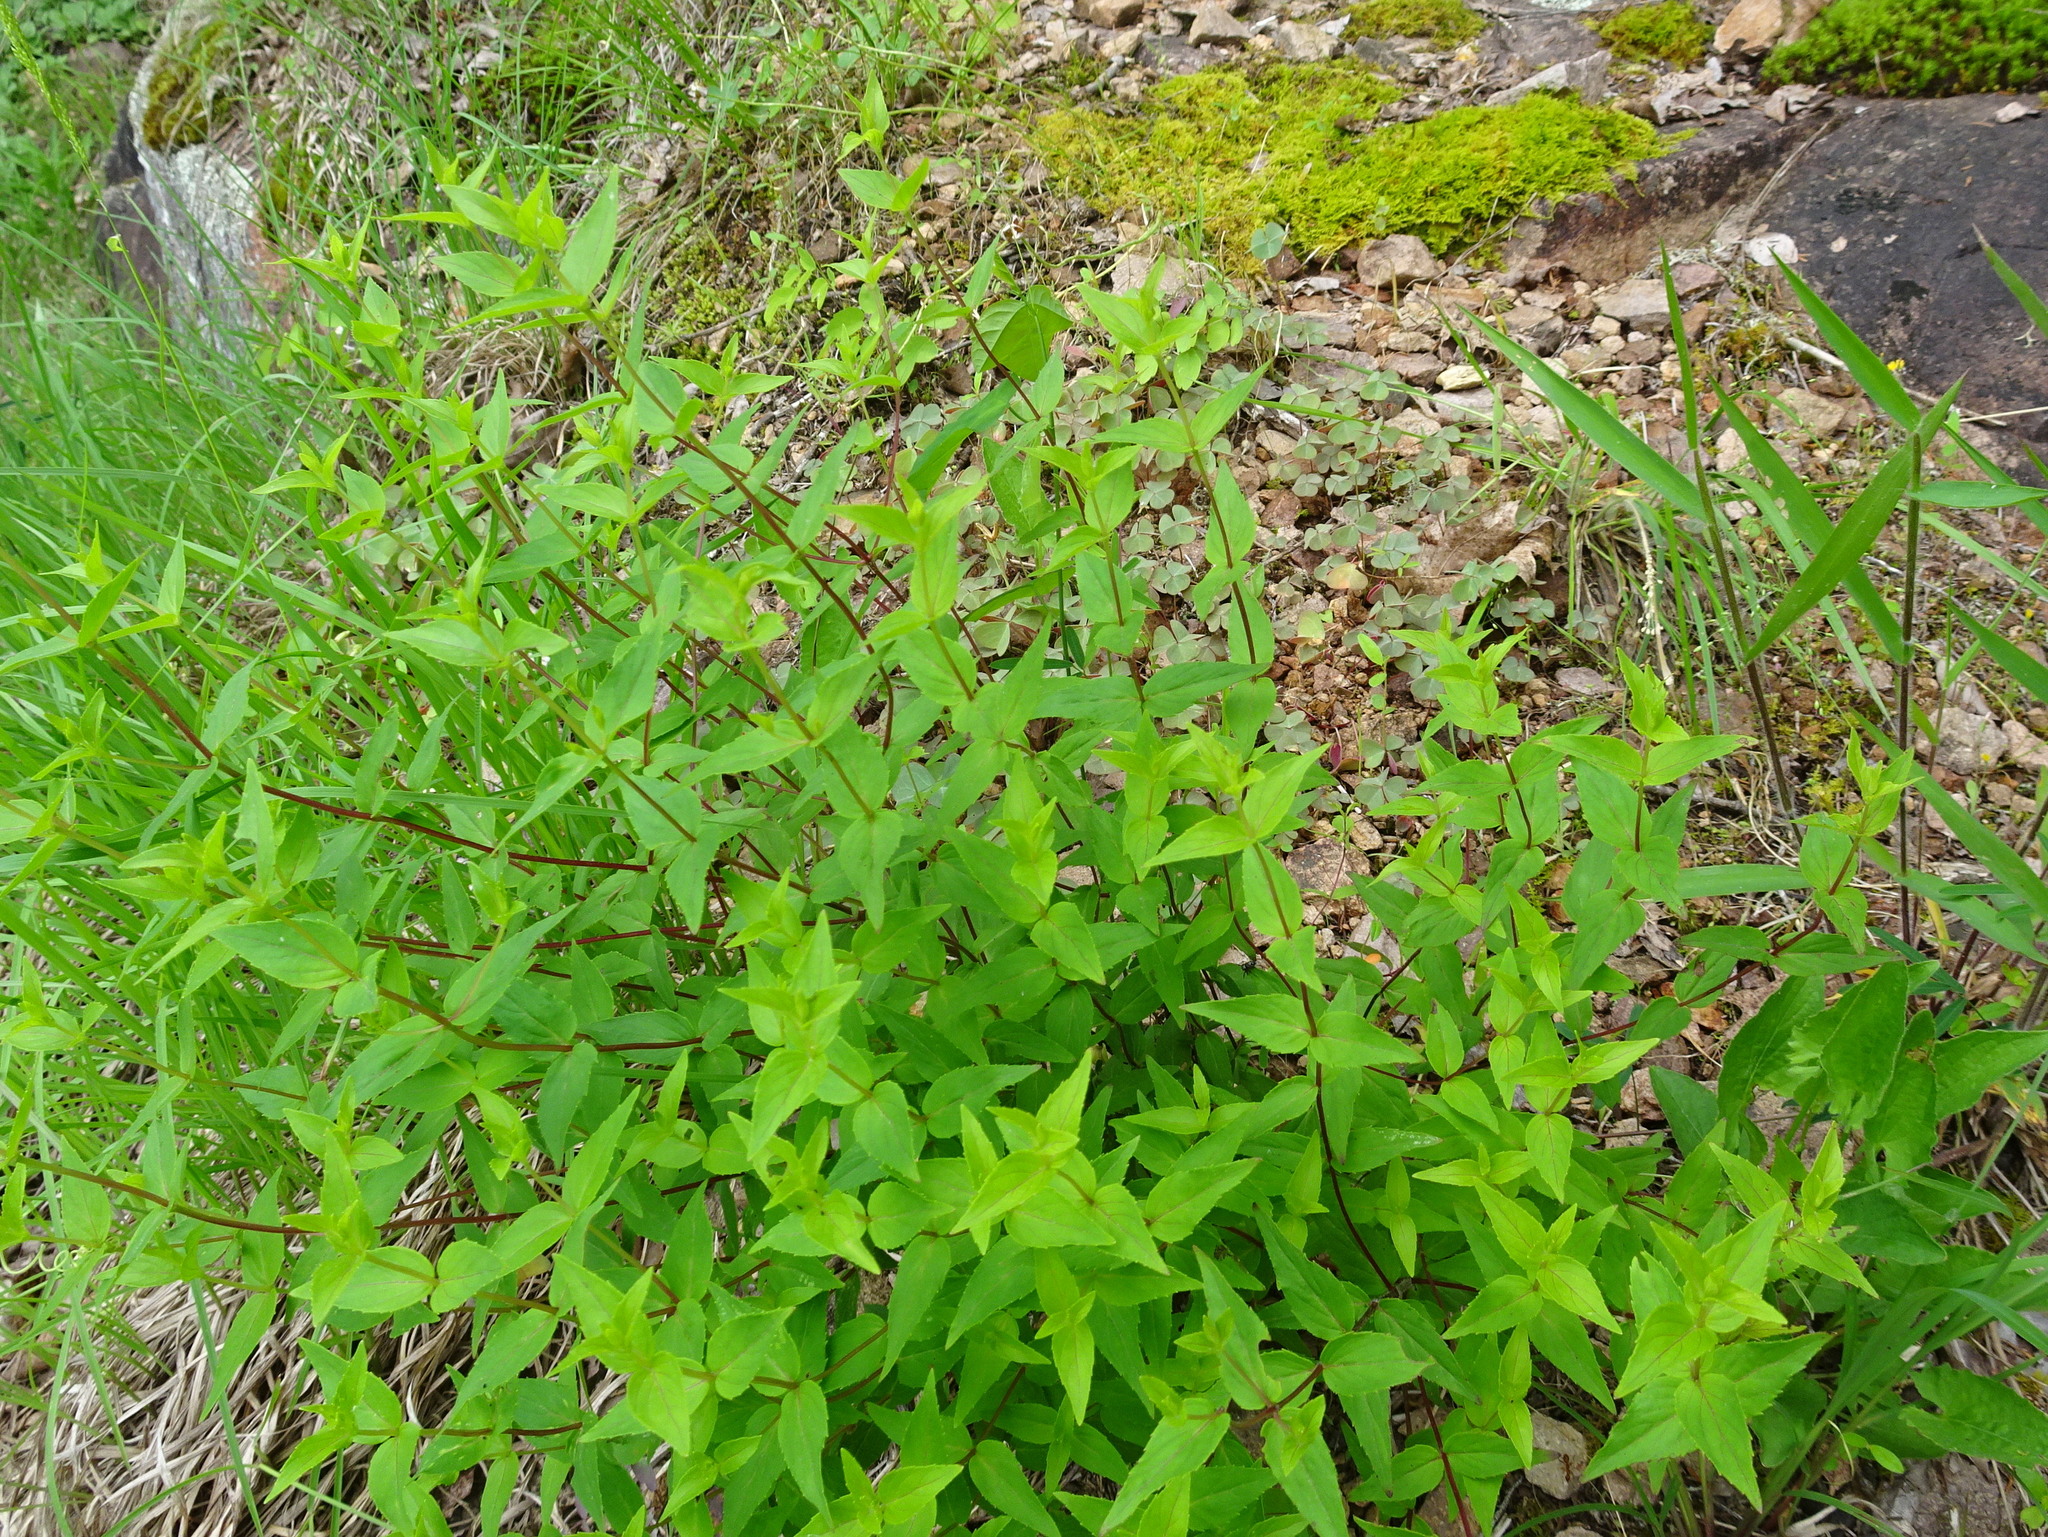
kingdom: Plantae
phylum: Tracheophyta
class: Magnoliopsida
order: Lamiales
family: Lamiaceae
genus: Cunila
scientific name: Cunila origanoides
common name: American dittany
